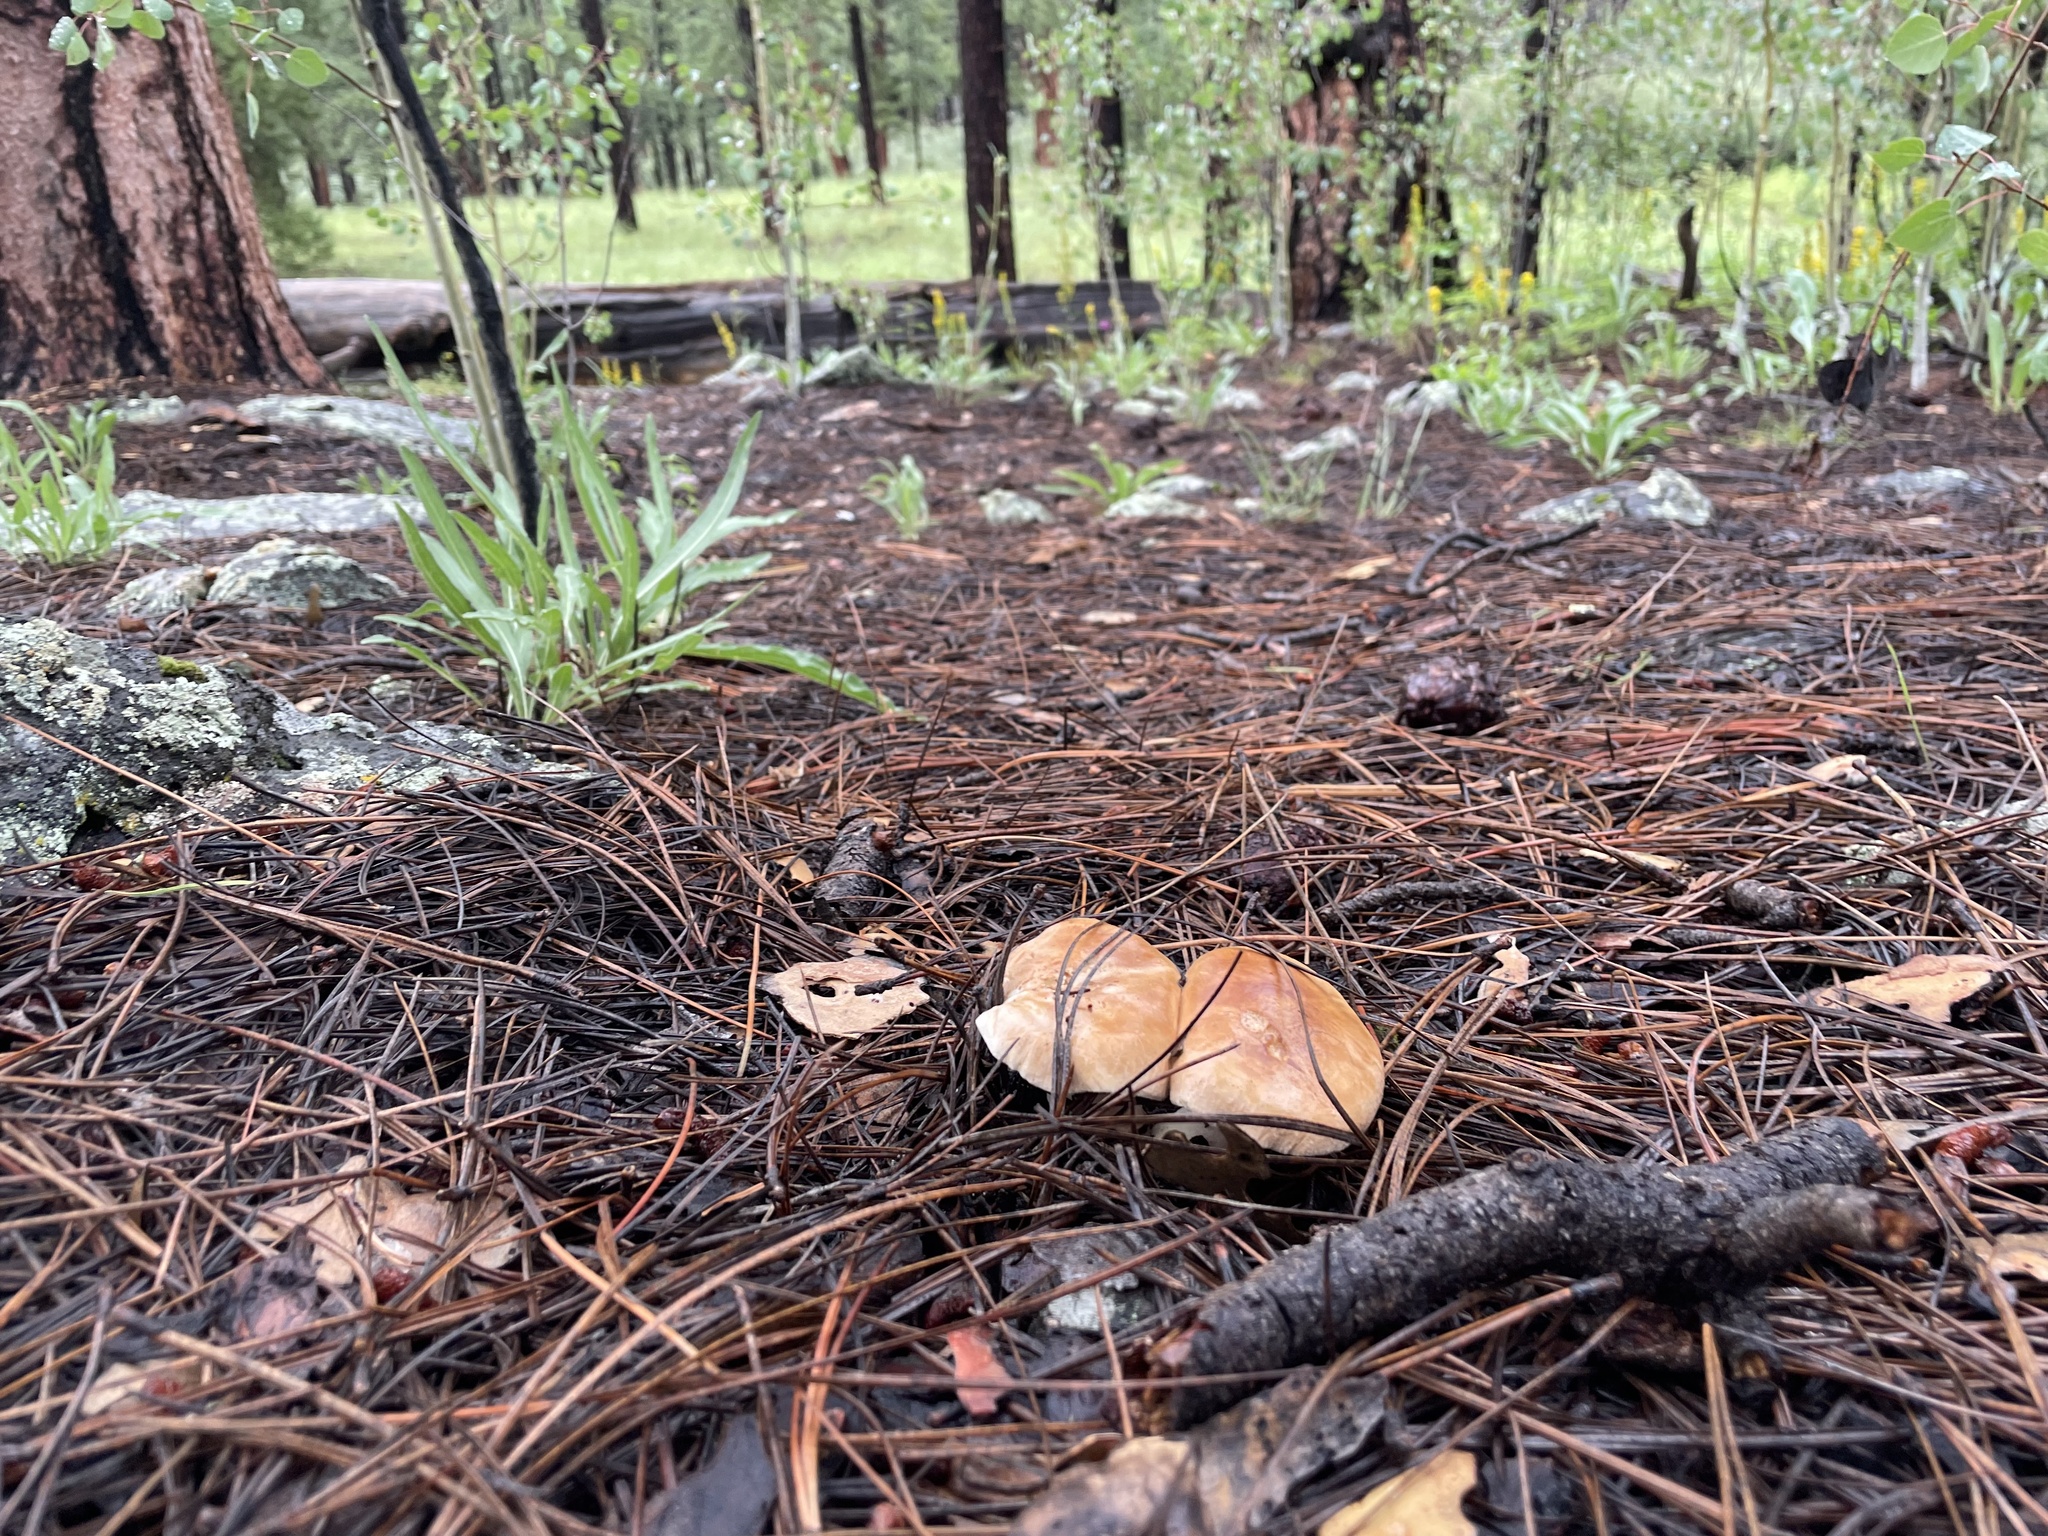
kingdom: Fungi
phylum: Basidiomycota
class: Agaricomycetes
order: Agaricales
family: Tricholomataceae
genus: Leucopaxillus
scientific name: Leucopaxillus gentianeus
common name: Bitter funnel
